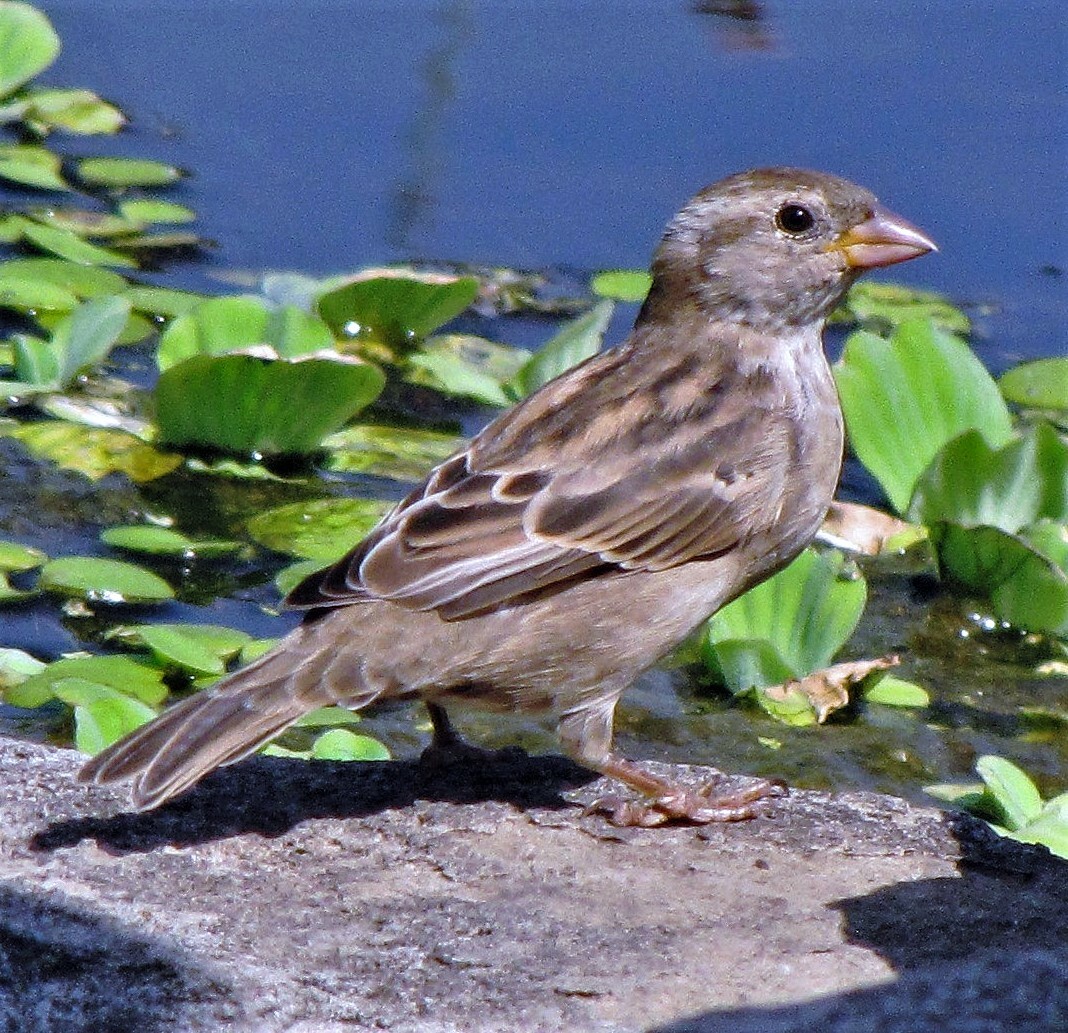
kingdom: Animalia
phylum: Chordata
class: Aves
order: Passeriformes
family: Passeridae
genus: Passer
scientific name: Passer domesticus
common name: House sparrow
